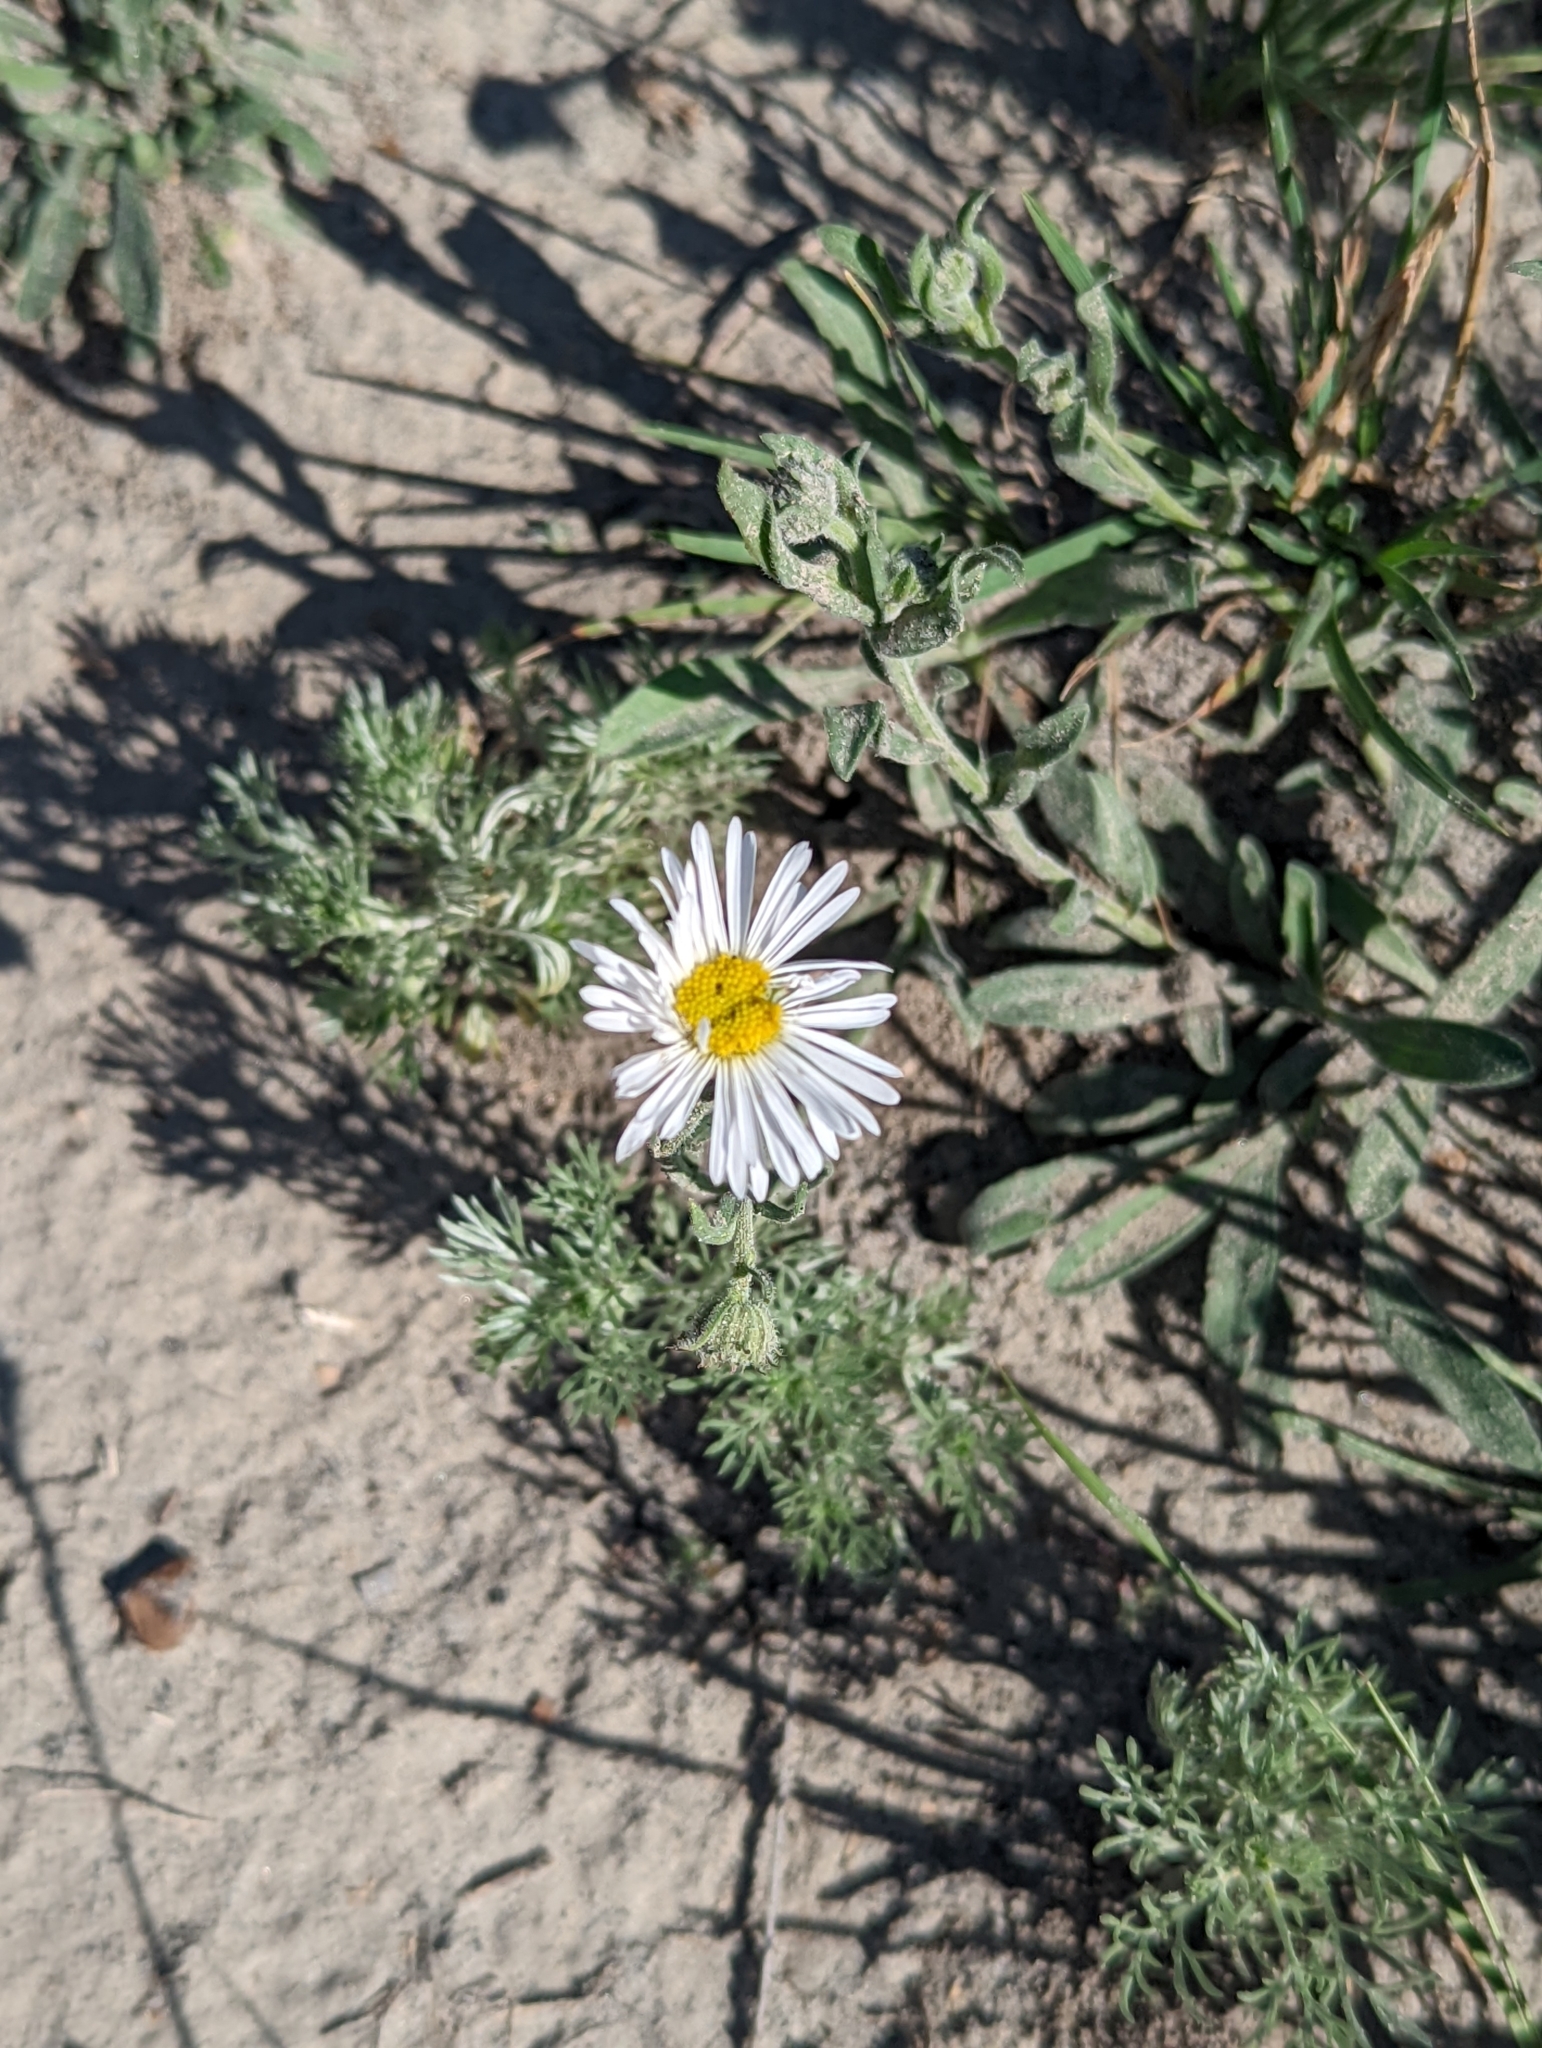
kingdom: Plantae
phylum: Tracheophyta
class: Magnoliopsida
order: Asterales
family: Asteraceae
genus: Erigeron
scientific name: Erigeron caespitosus
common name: Tufted fleabane
